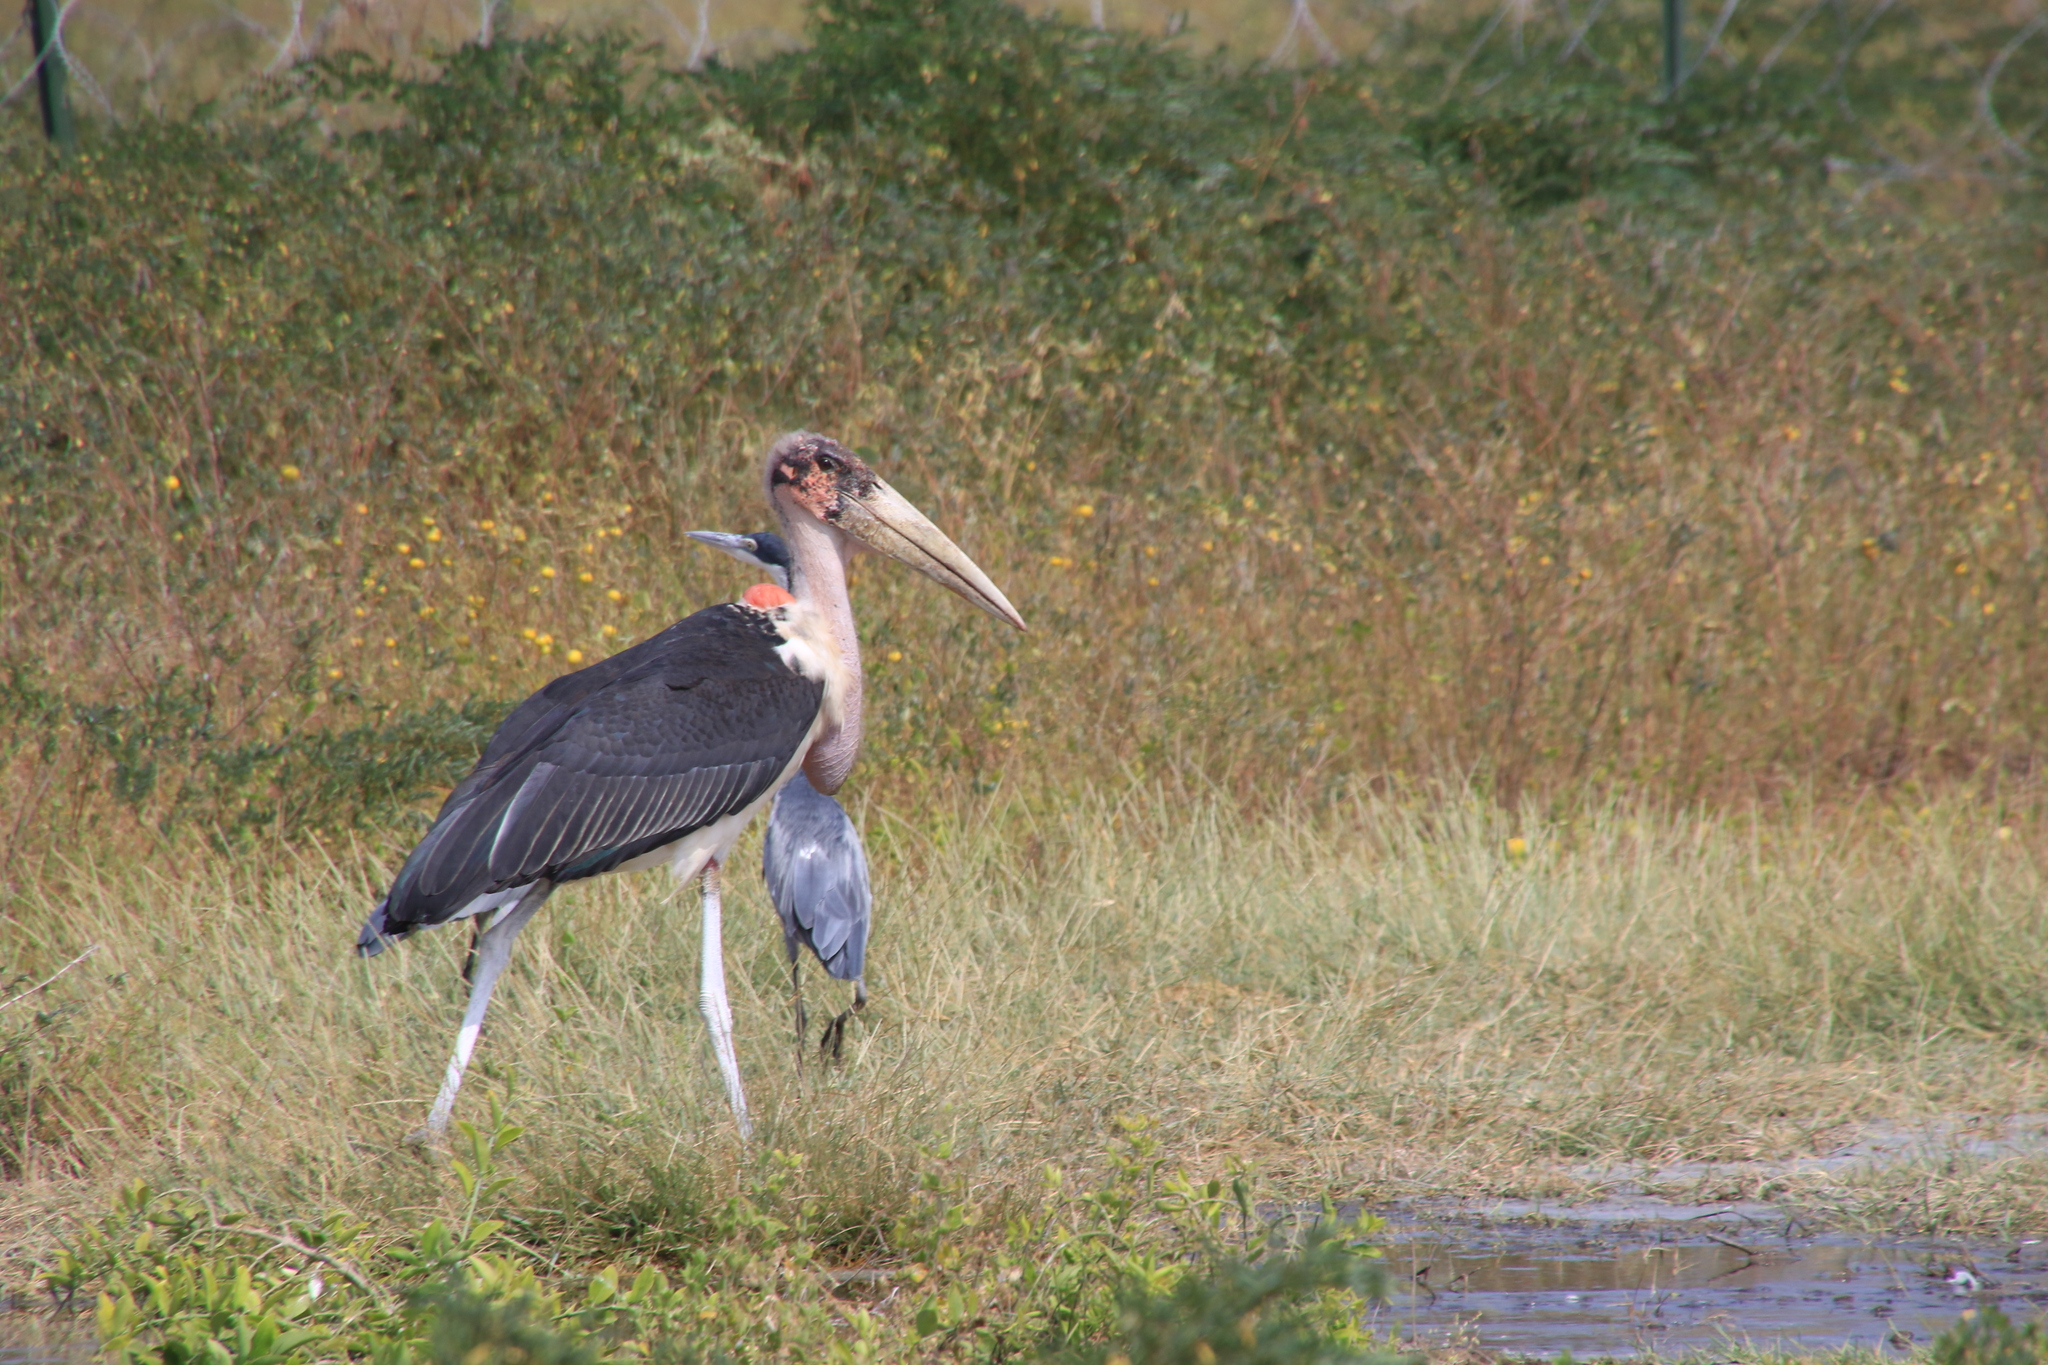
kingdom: Animalia
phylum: Chordata
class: Aves
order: Ciconiiformes
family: Ciconiidae
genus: Leptoptilos
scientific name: Leptoptilos crumenifer
